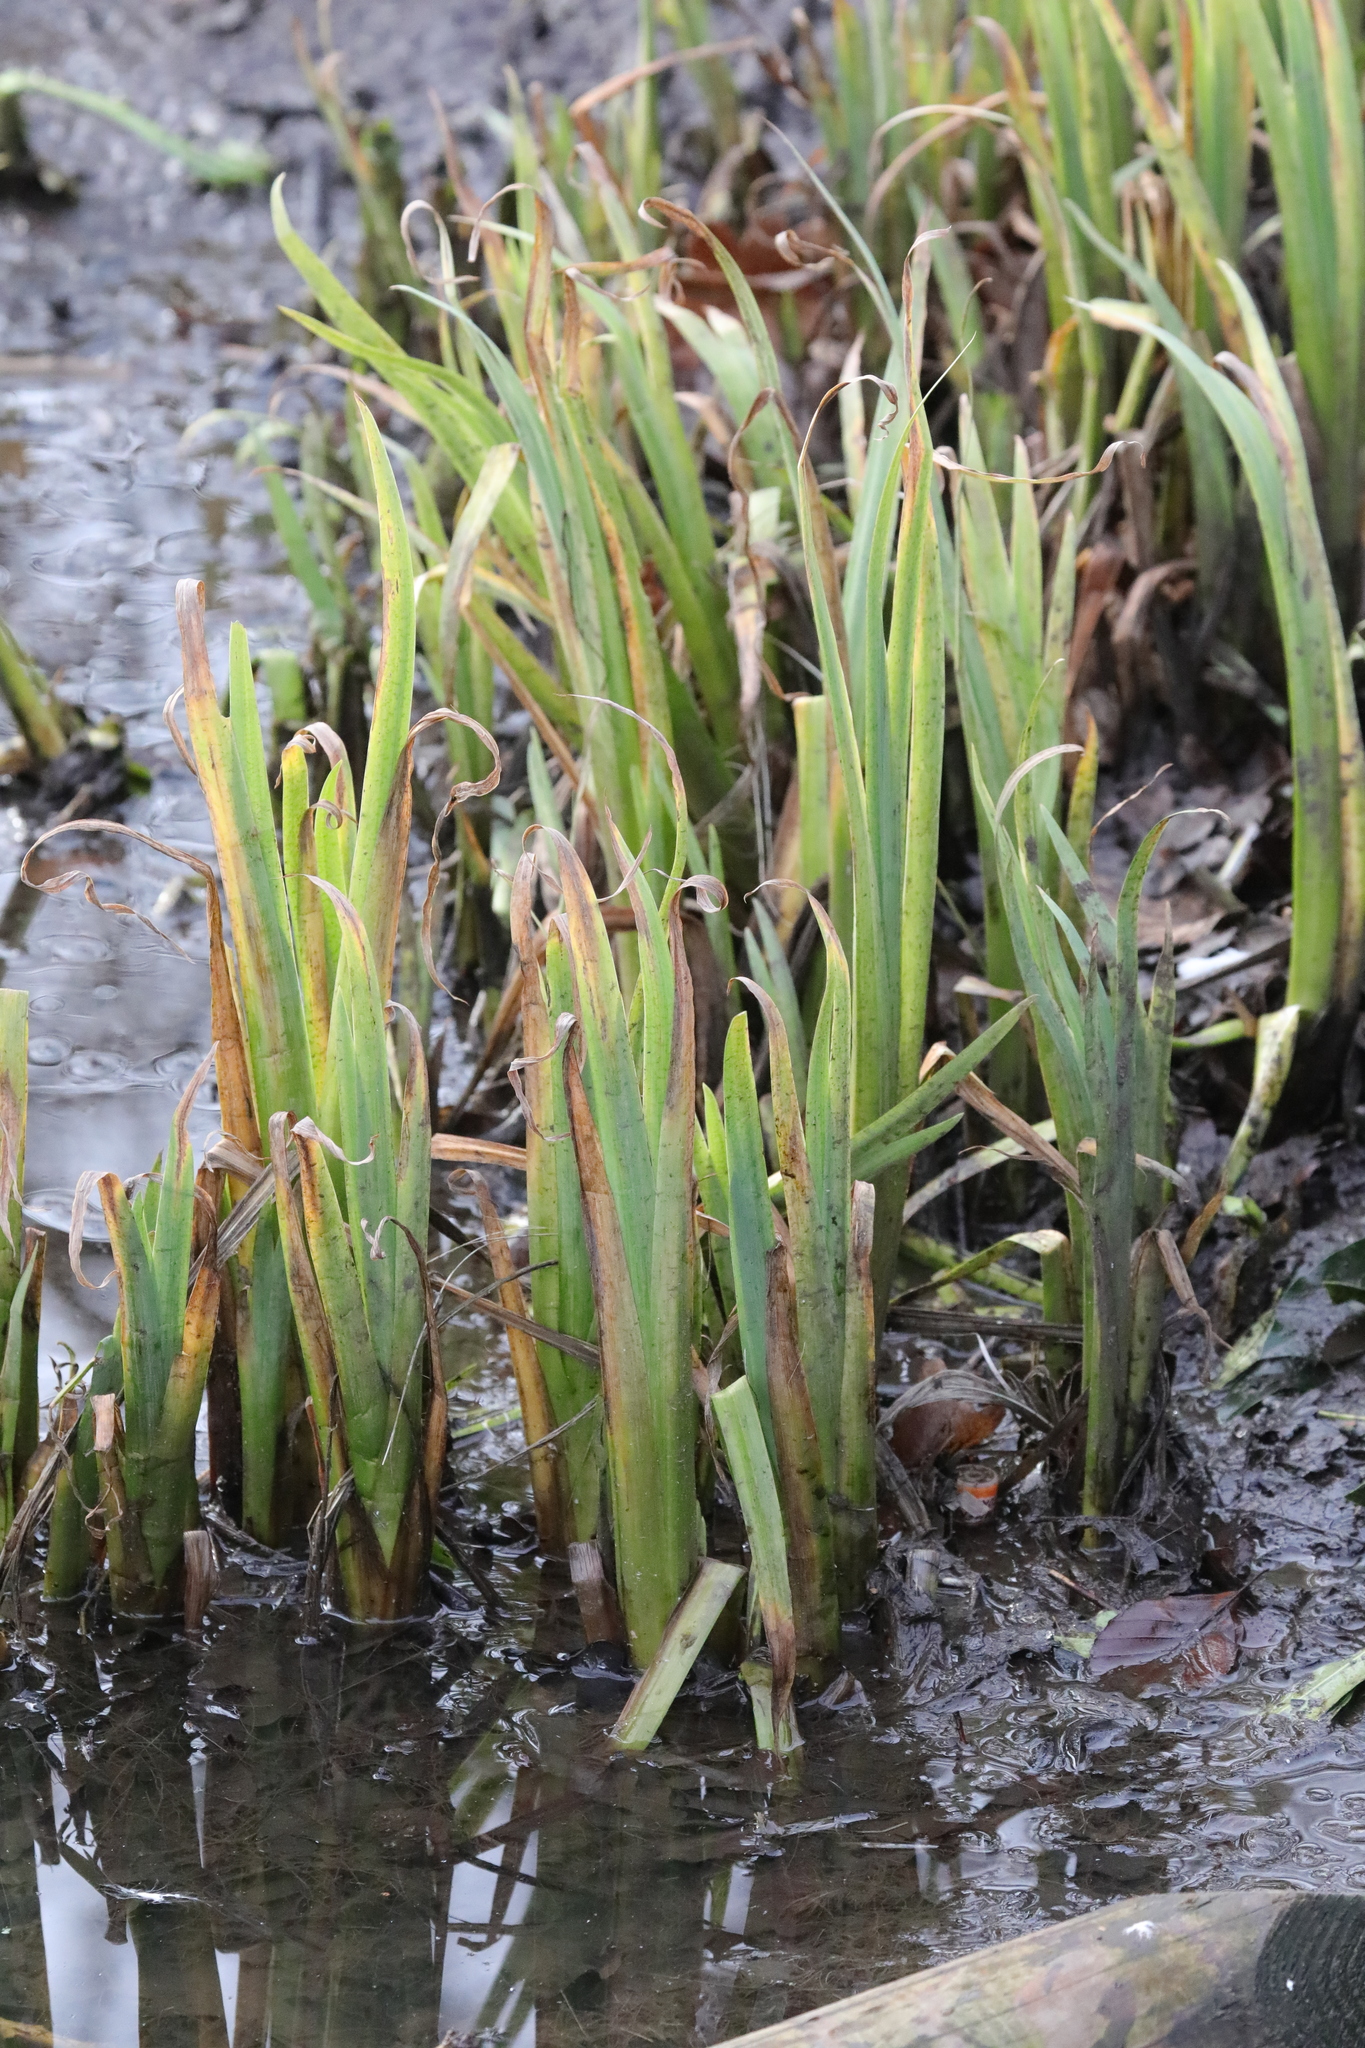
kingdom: Plantae
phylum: Tracheophyta
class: Liliopsida
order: Asparagales
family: Iridaceae
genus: Iris
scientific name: Iris pseudacorus
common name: Yellow flag
